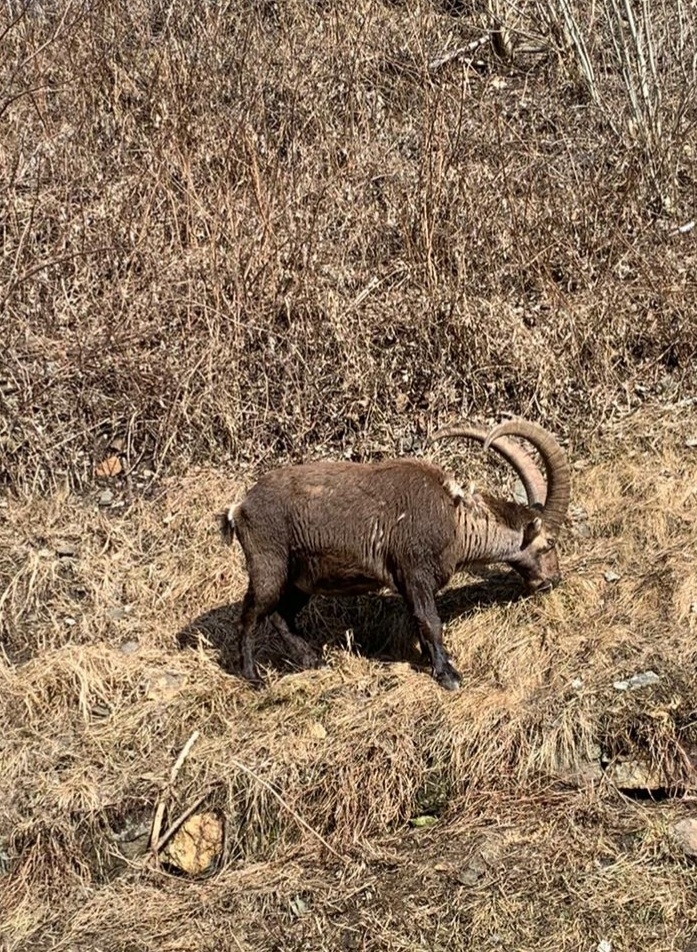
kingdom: Animalia
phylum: Chordata
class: Mammalia
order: Artiodactyla
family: Bovidae
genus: Capra
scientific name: Capra ibex
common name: Alpine ibex
